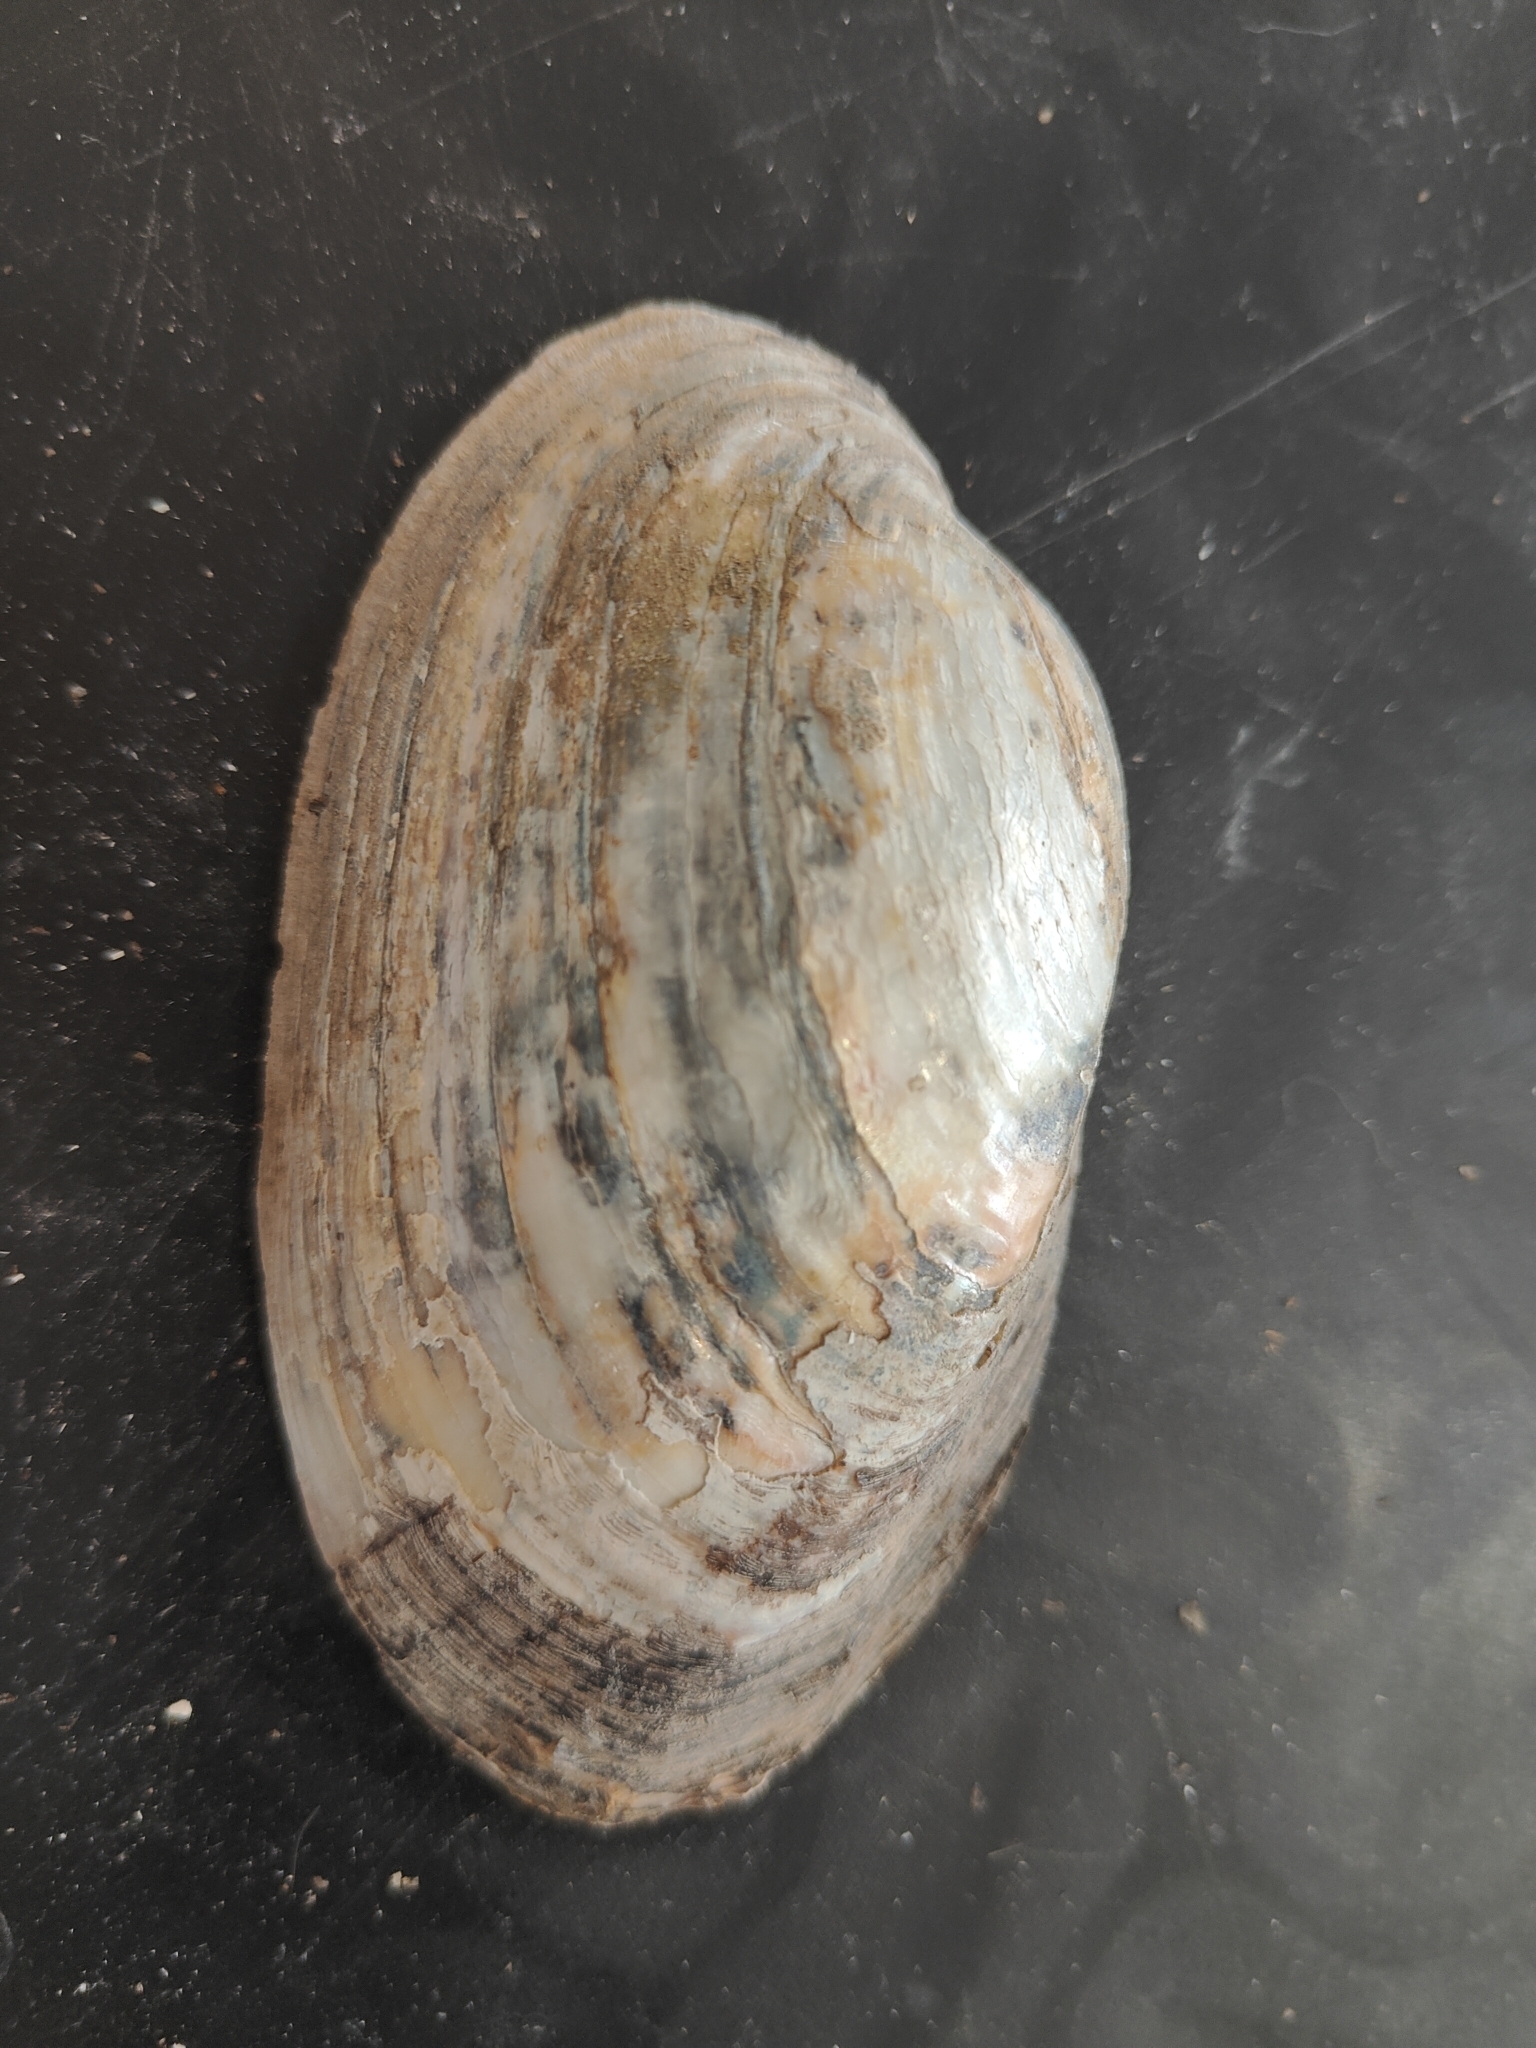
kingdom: Animalia
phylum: Mollusca
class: Bivalvia
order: Unionida
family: Unionidae
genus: Lampsilis
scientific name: Lampsilis siliquoidea
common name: Fatmucket
